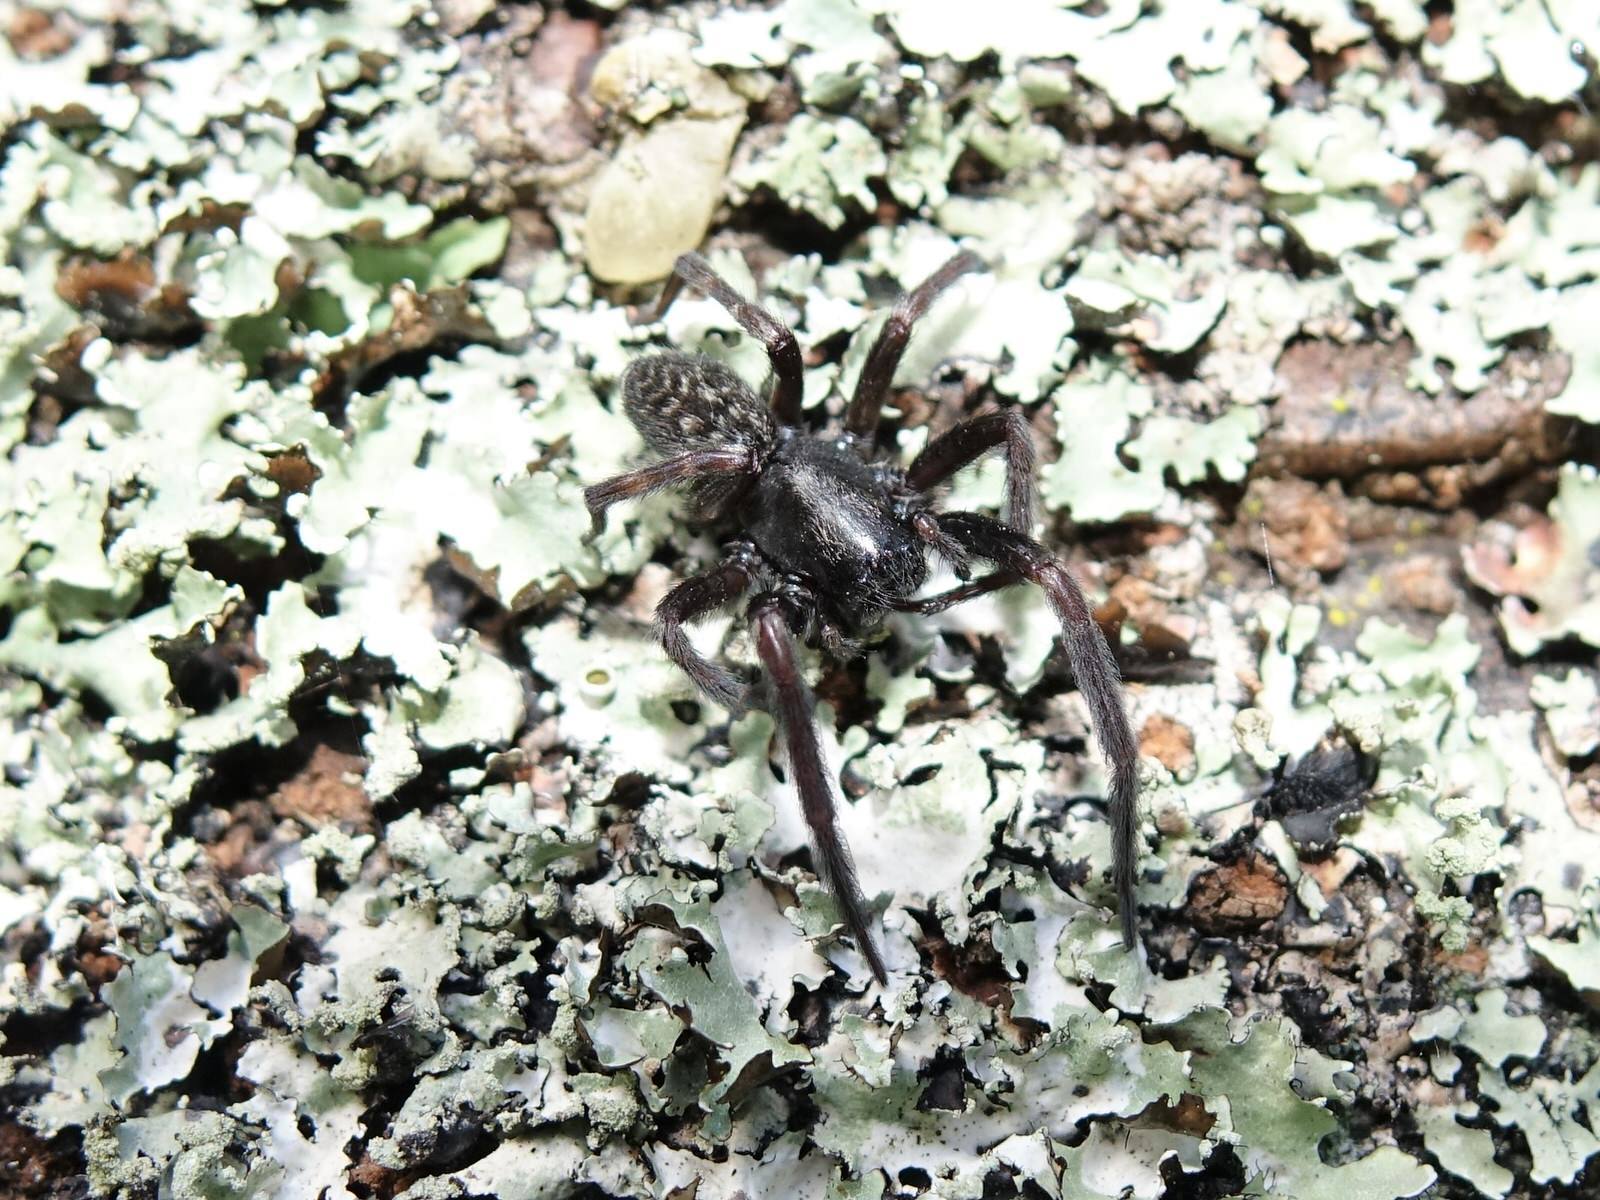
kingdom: Animalia
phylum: Arthropoda
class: Arachnida
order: Araneae
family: Desidae
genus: Badumna
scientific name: Badumna insignis
